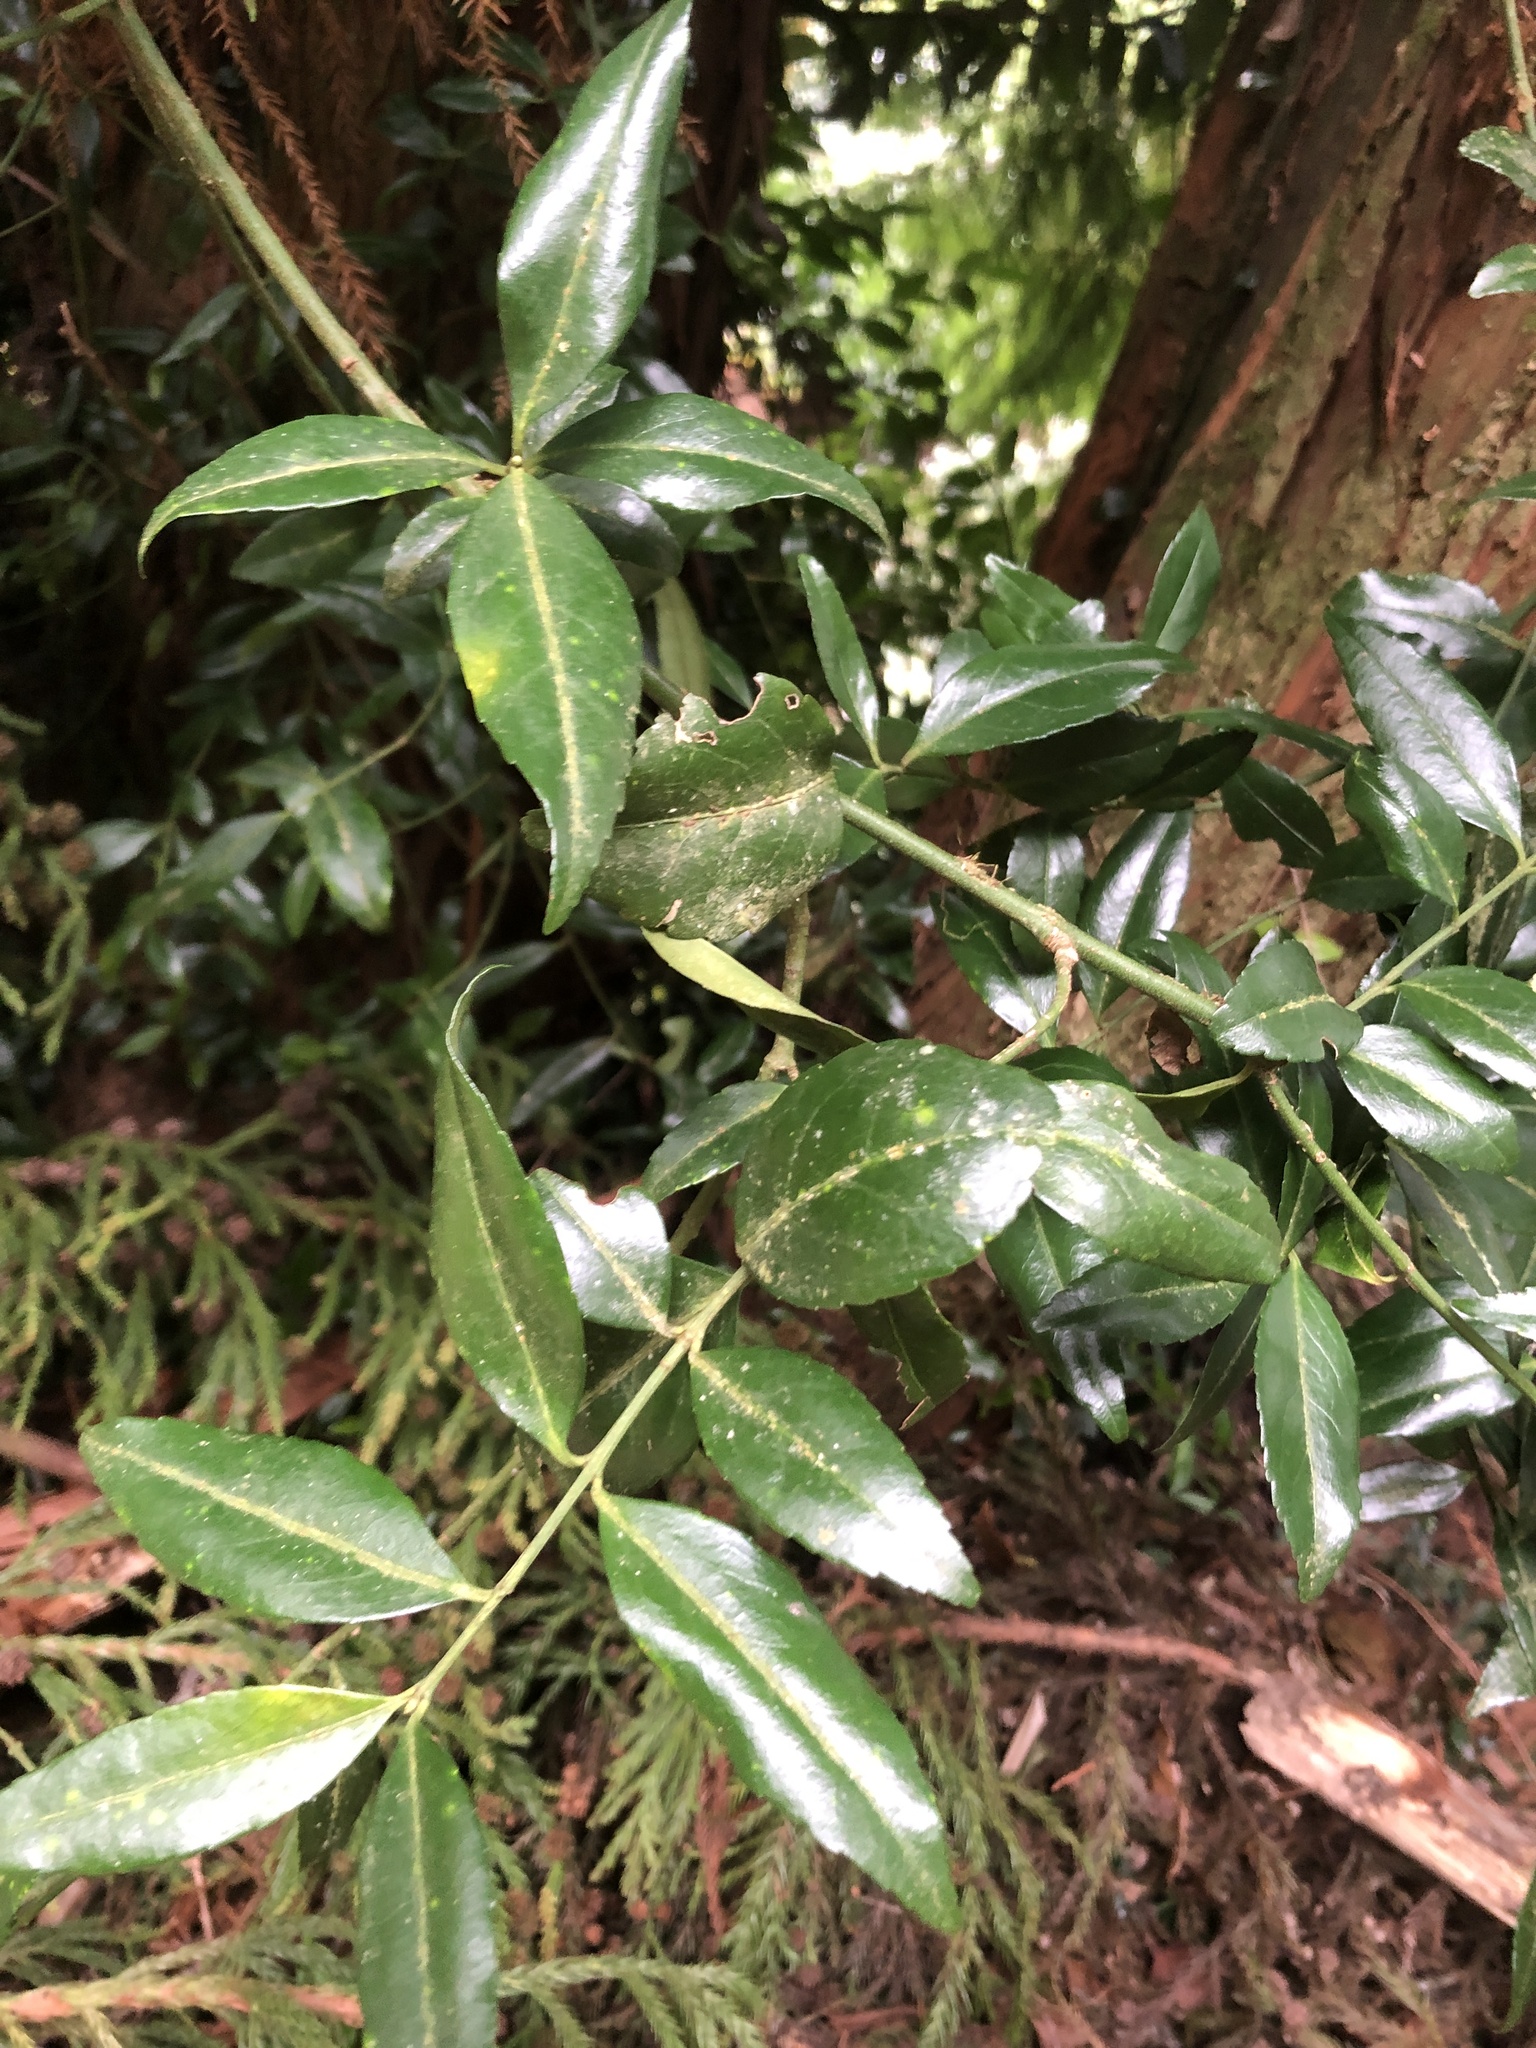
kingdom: Plantae
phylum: Tracheophyta
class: Magnoliopsida
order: Celastrales
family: Celastraceae
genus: Euonymus
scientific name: Euonymus spraguei
